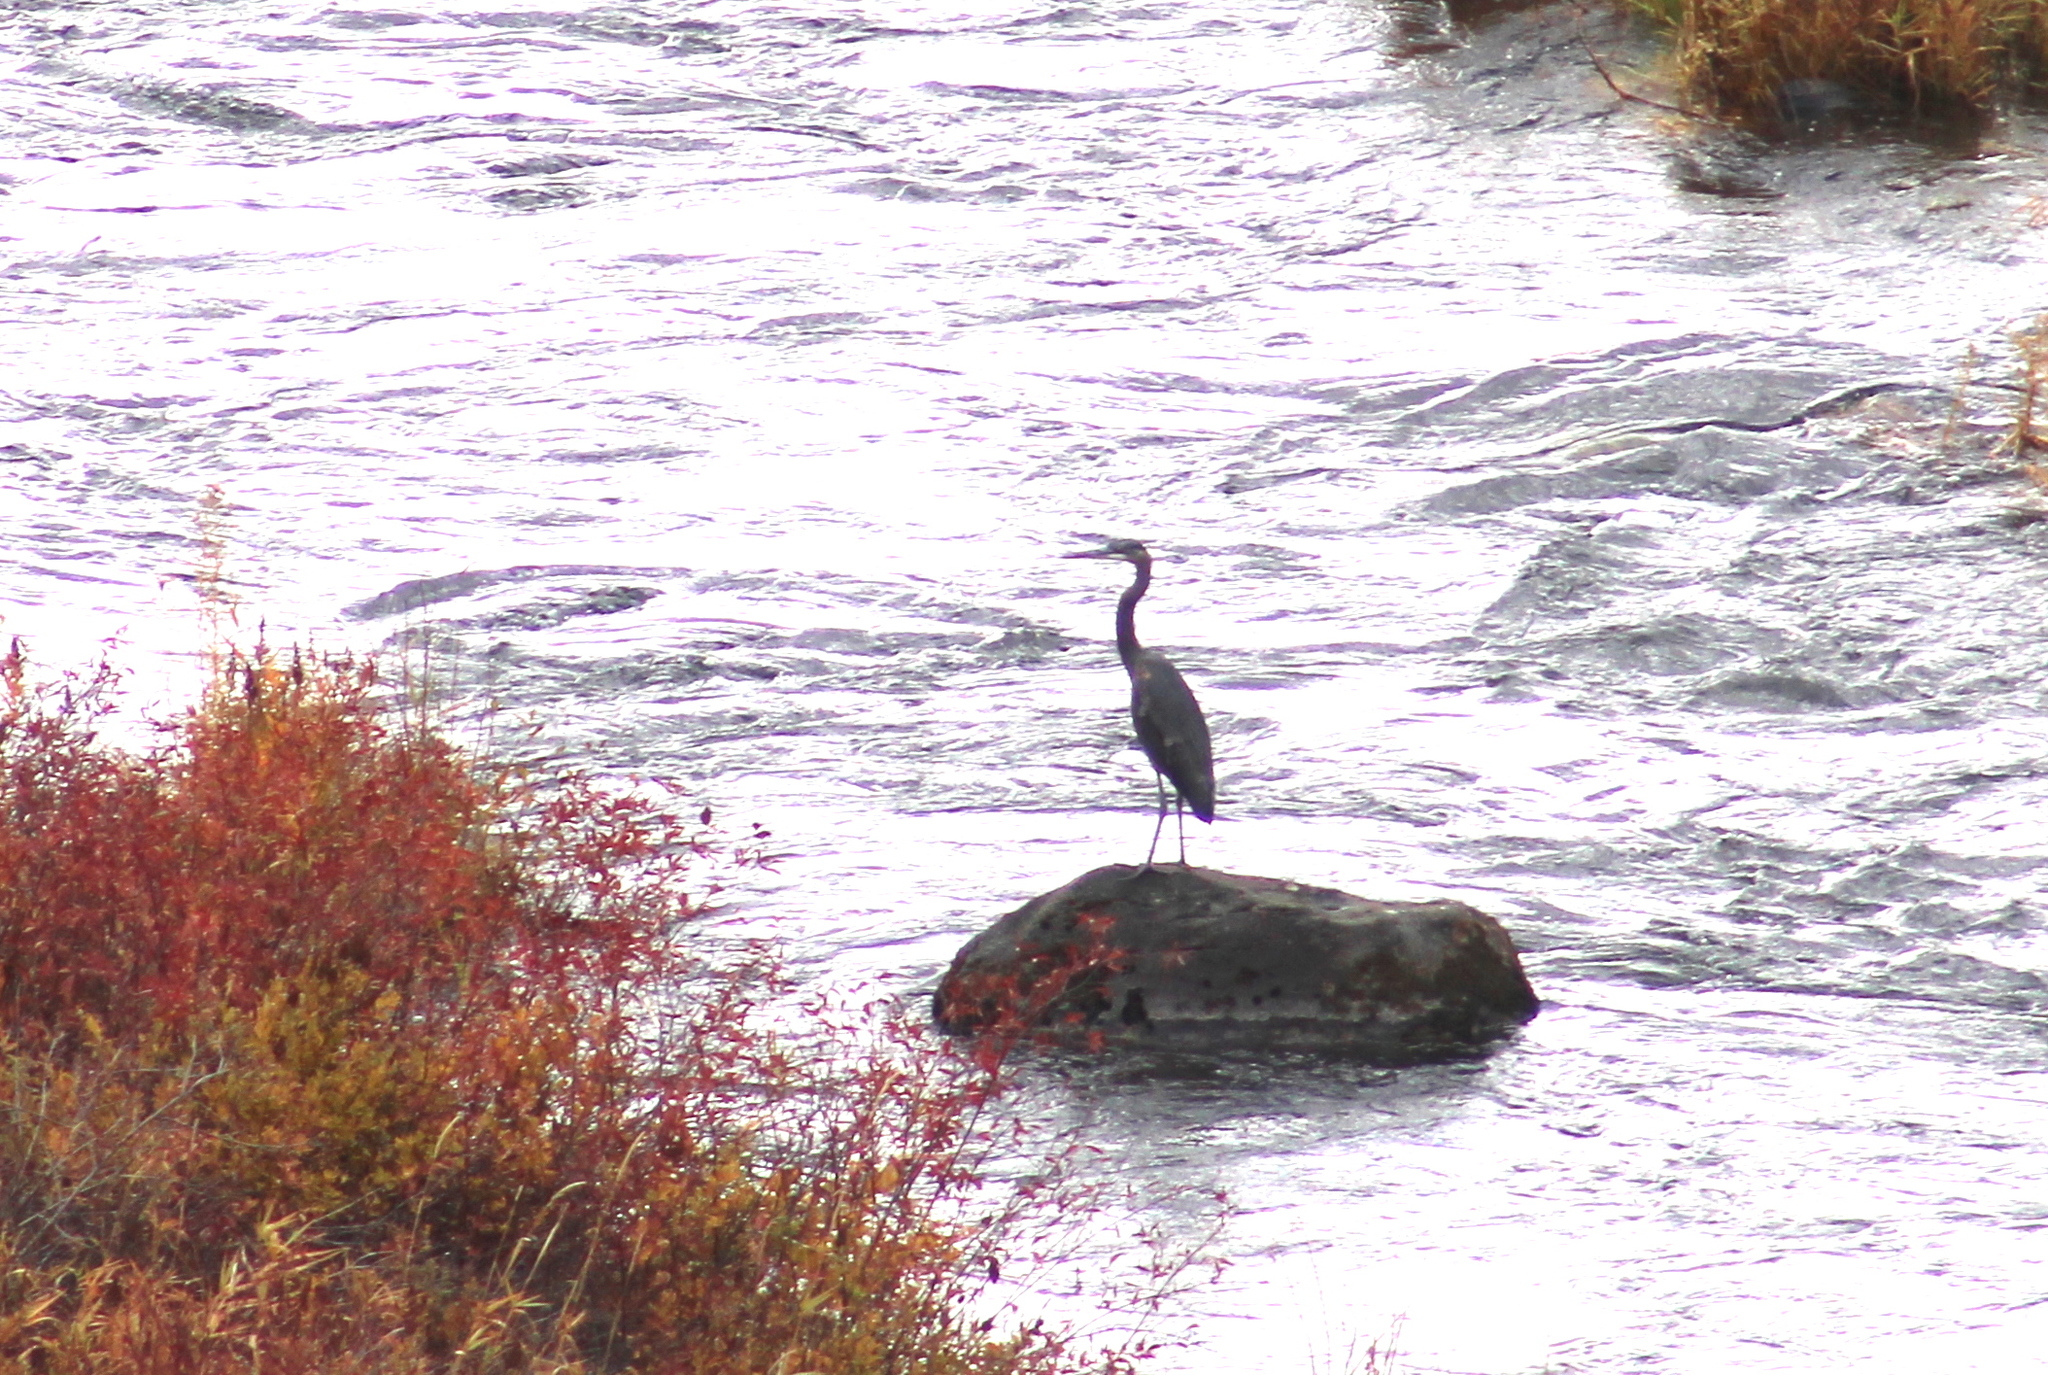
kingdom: Animalia
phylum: Chordata
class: Aves
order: Pelecaniformes
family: Ardeidae
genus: Ardea
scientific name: Ardea herodias
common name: Great blue heron
